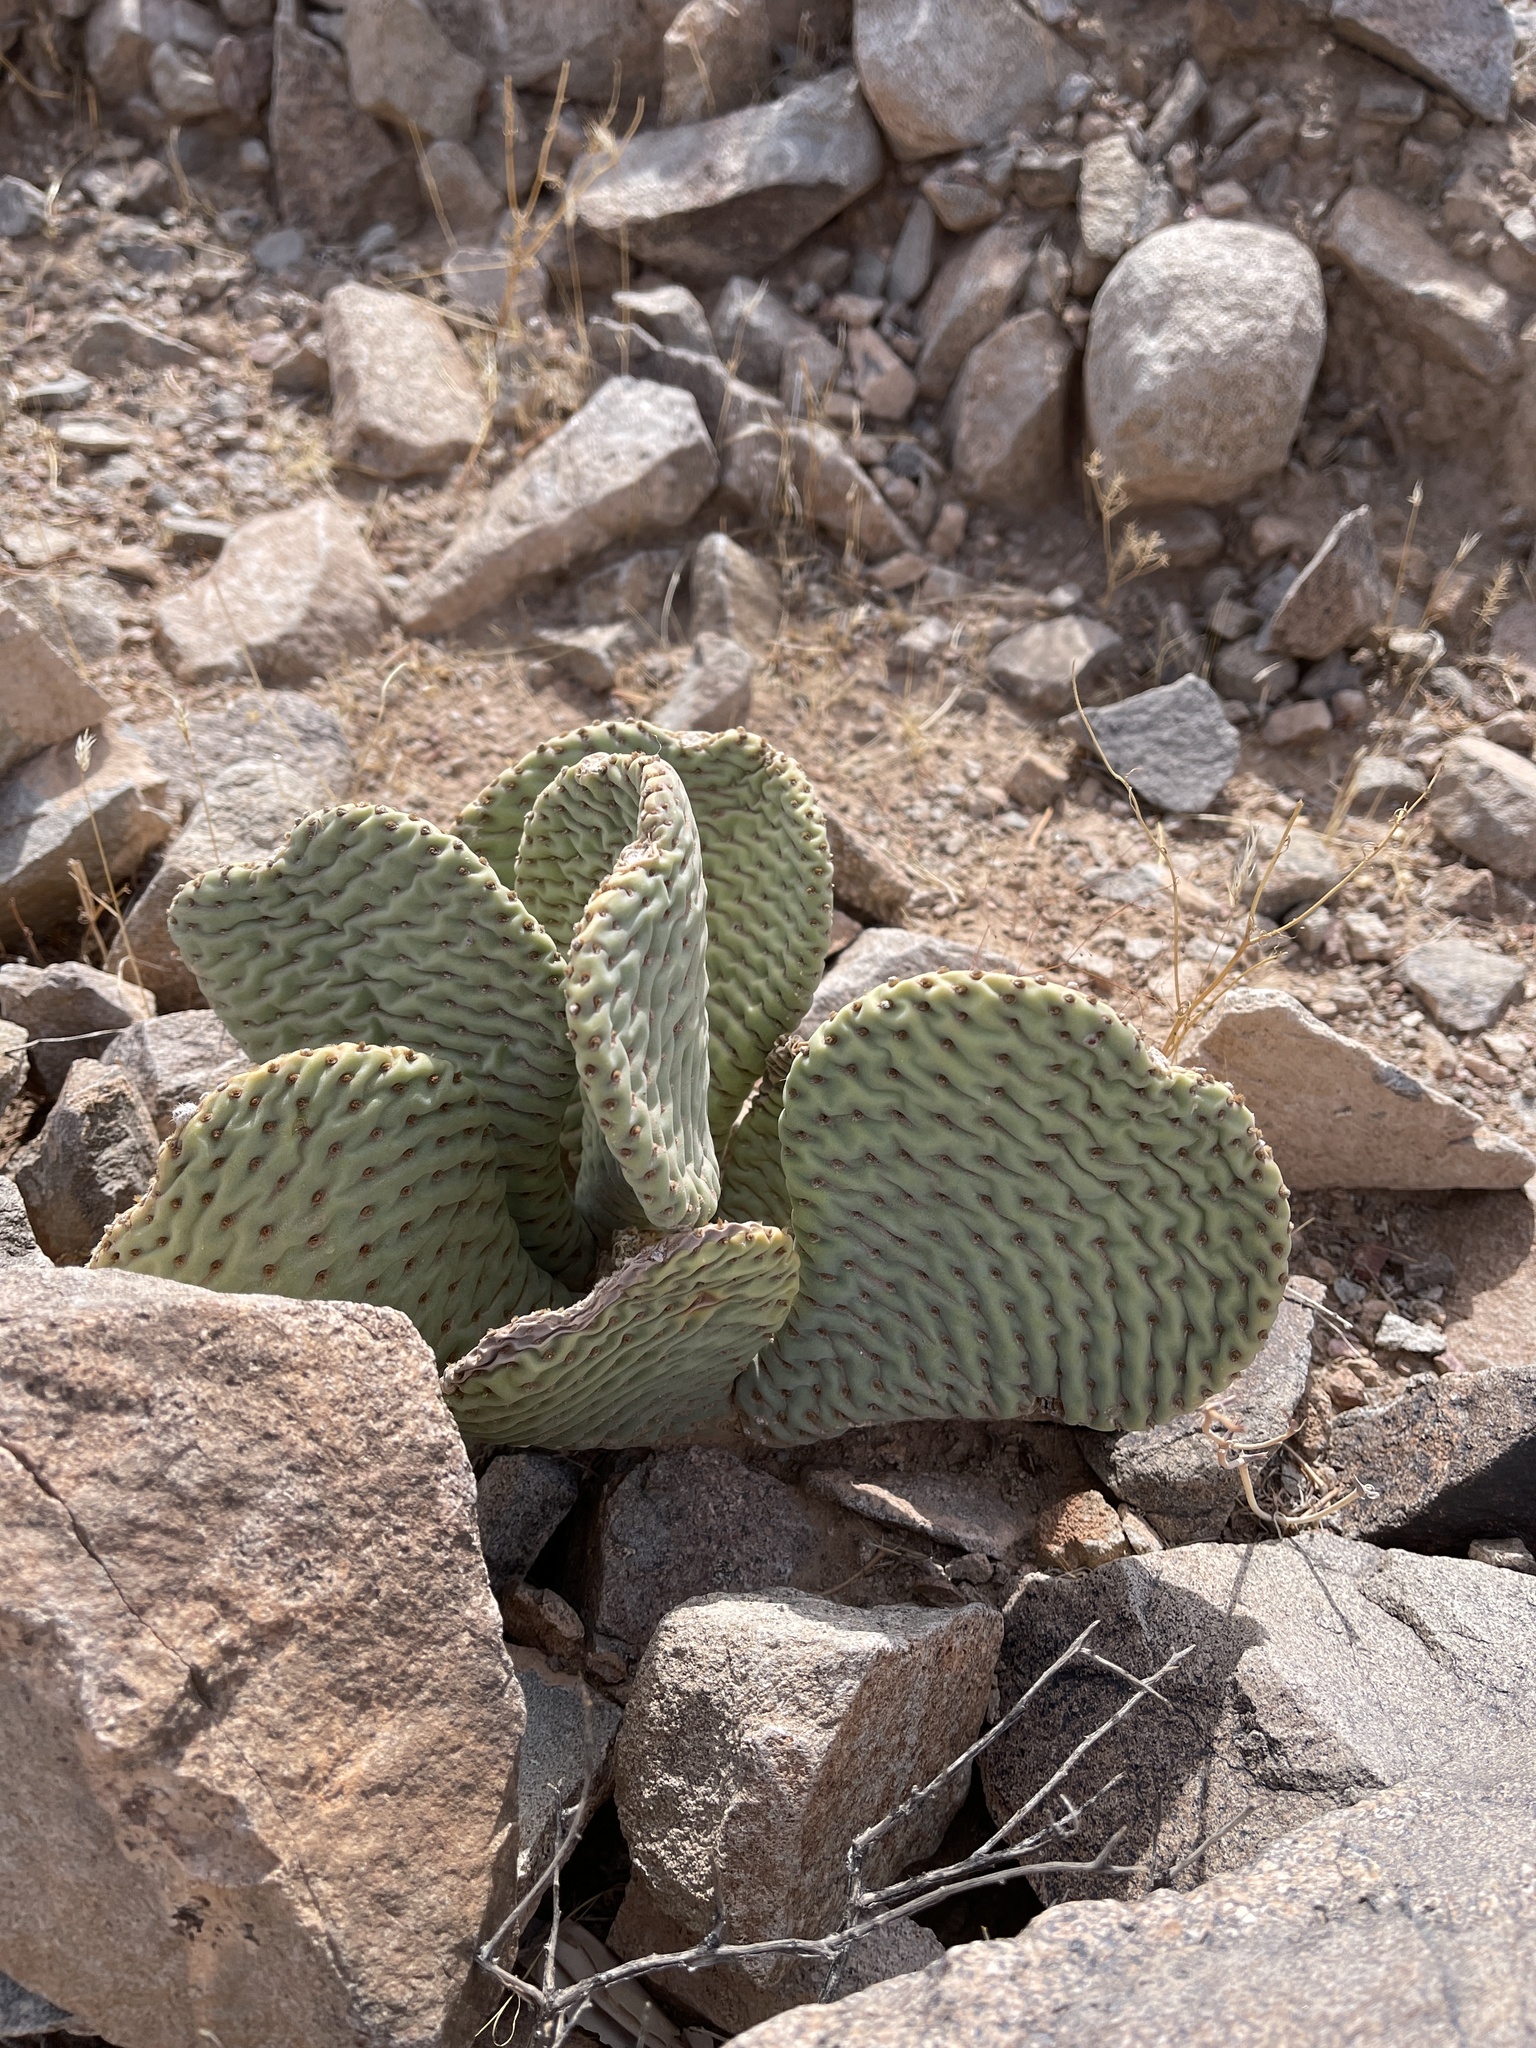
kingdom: Plantae
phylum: Tracheophyta
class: Magnoliopsida
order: Caryophyllales
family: Cactaceae
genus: Opuntia
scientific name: Opuntia basilaris
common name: Beavertail prickly-pear
